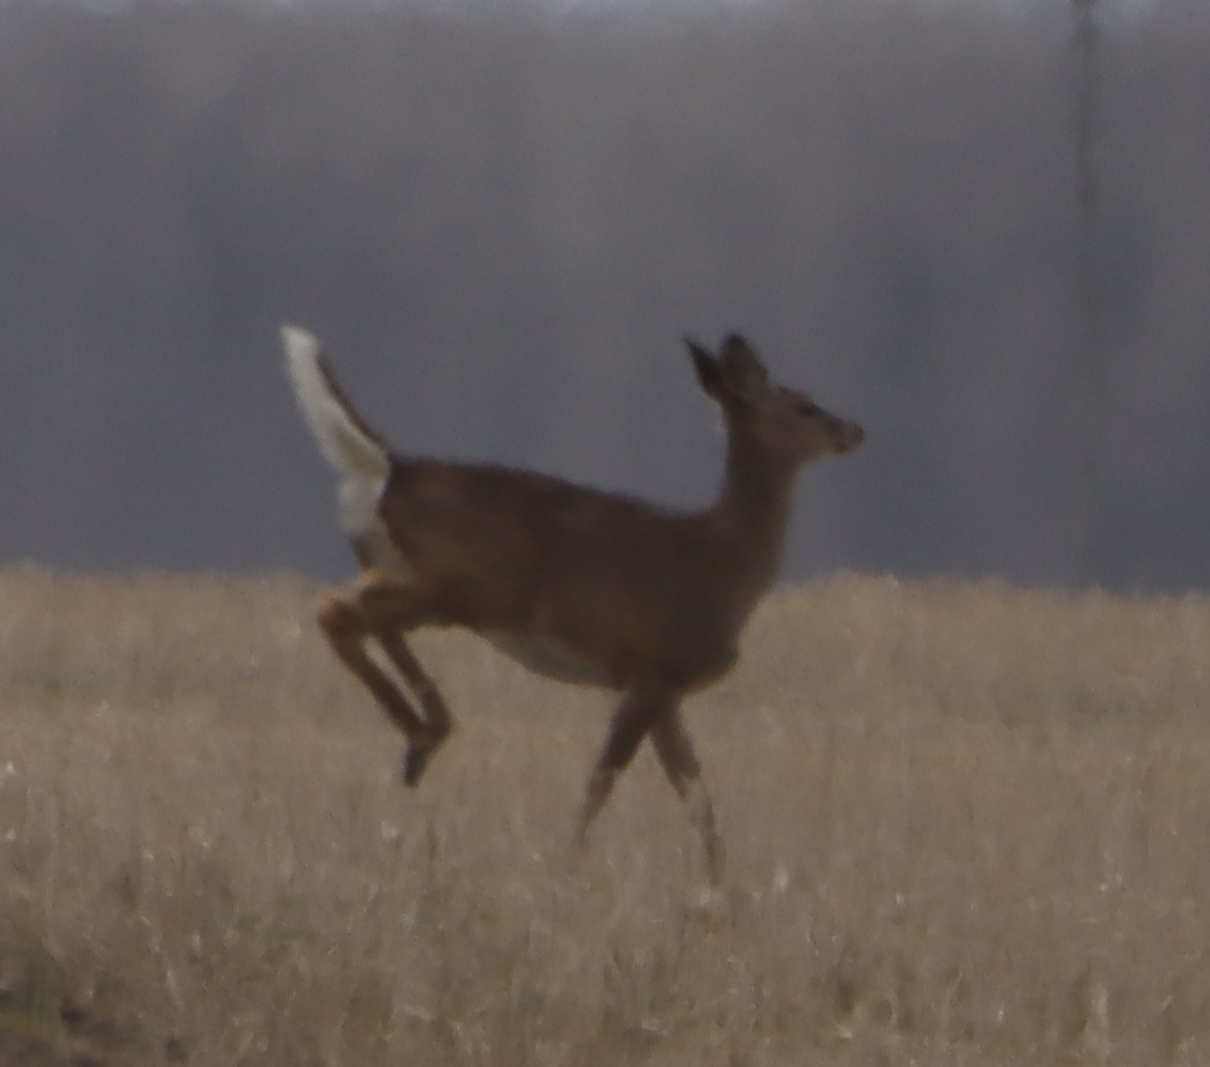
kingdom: Animalia
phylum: Chordata
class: Mammalia
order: Artiodactyla
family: Cervidae
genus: Odocoileus
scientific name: Odocoileus virginianus
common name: White-tailed deer
